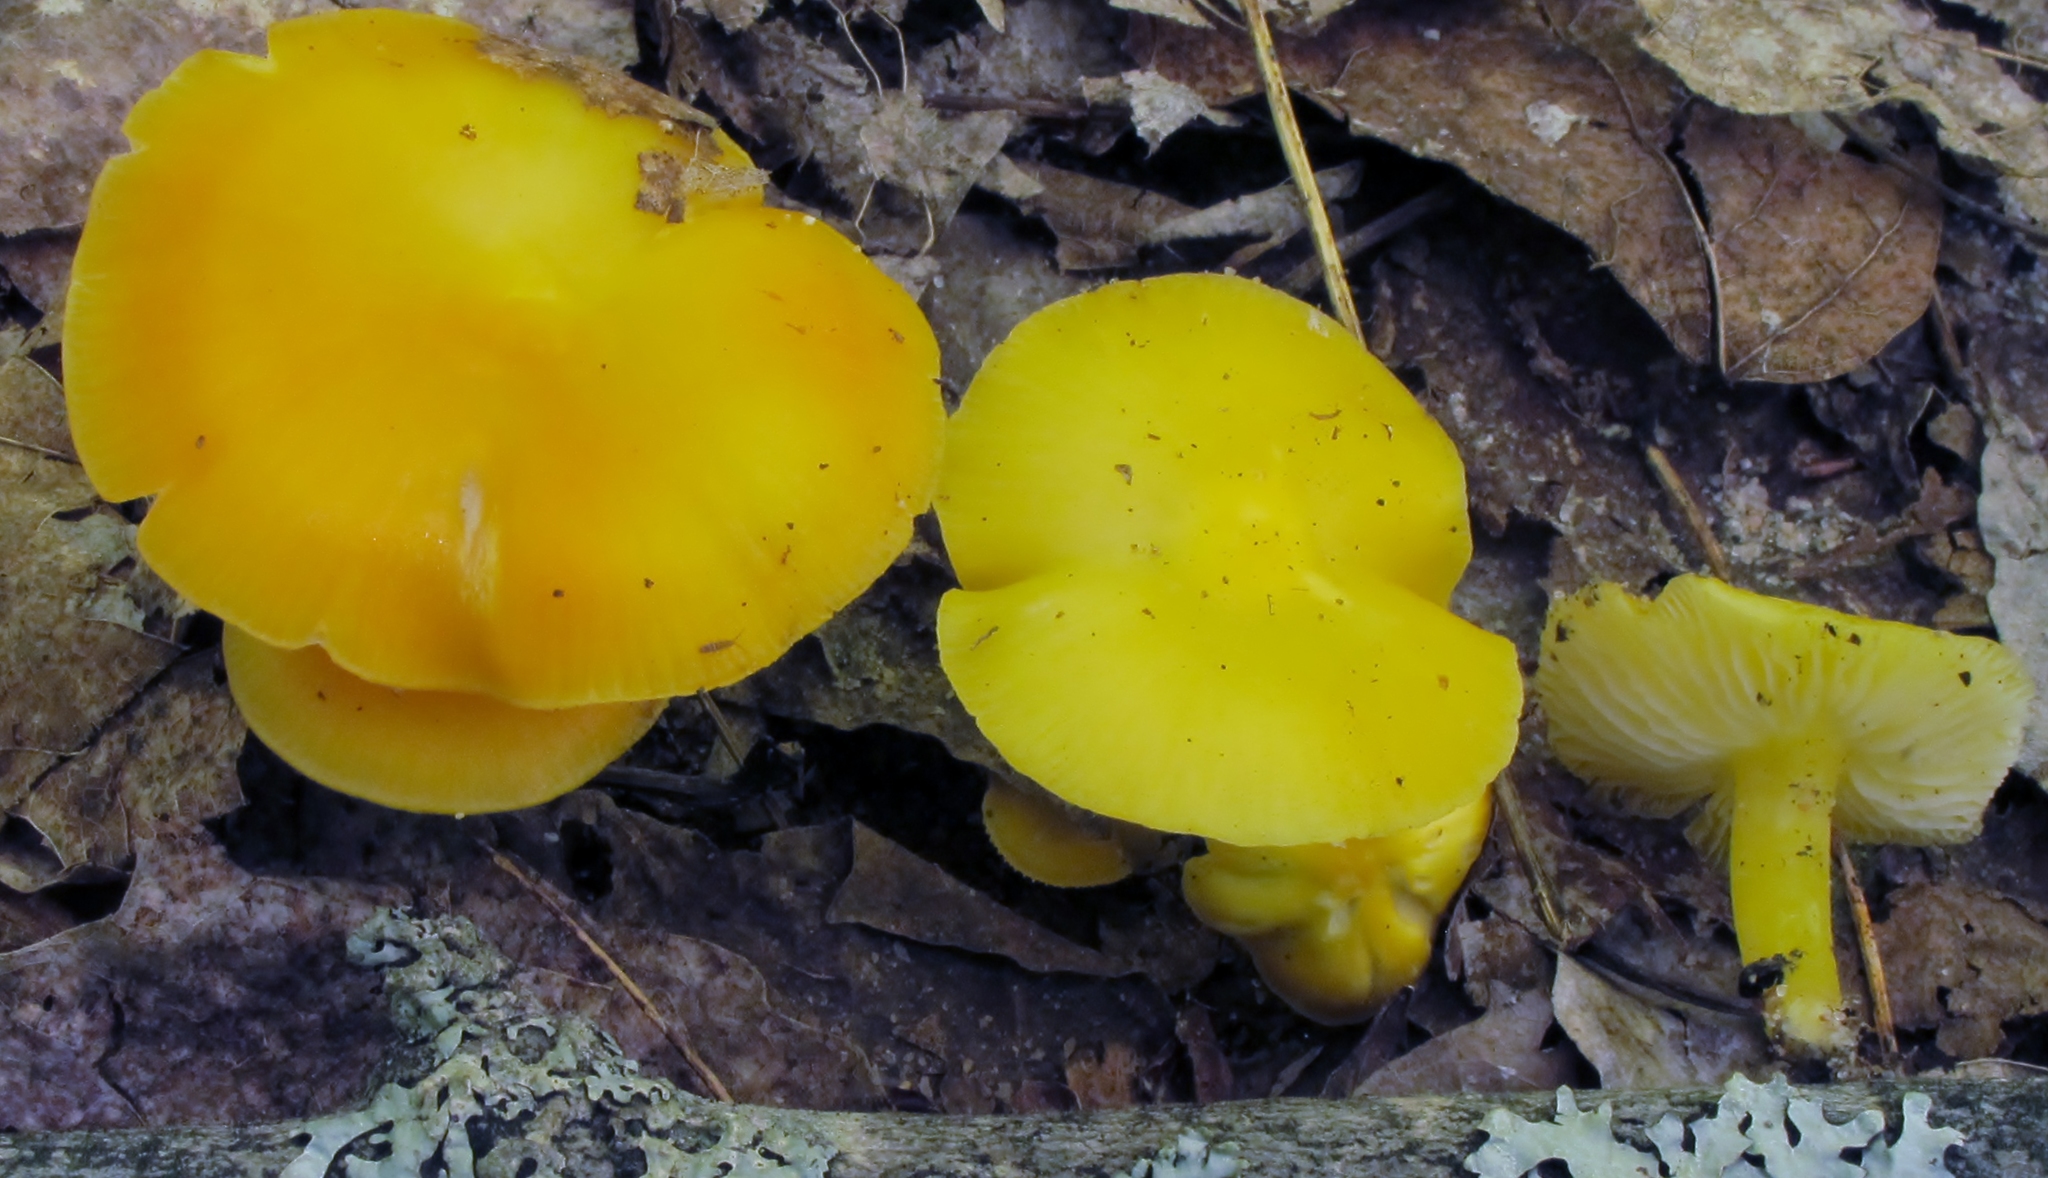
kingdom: Fungi
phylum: Basidiomycota
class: Agaricomycetes
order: Agaricales
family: Hygrophoraceae
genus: Hygrocybe
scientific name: Hygrocybe flavescens
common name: Golden waxy cap
